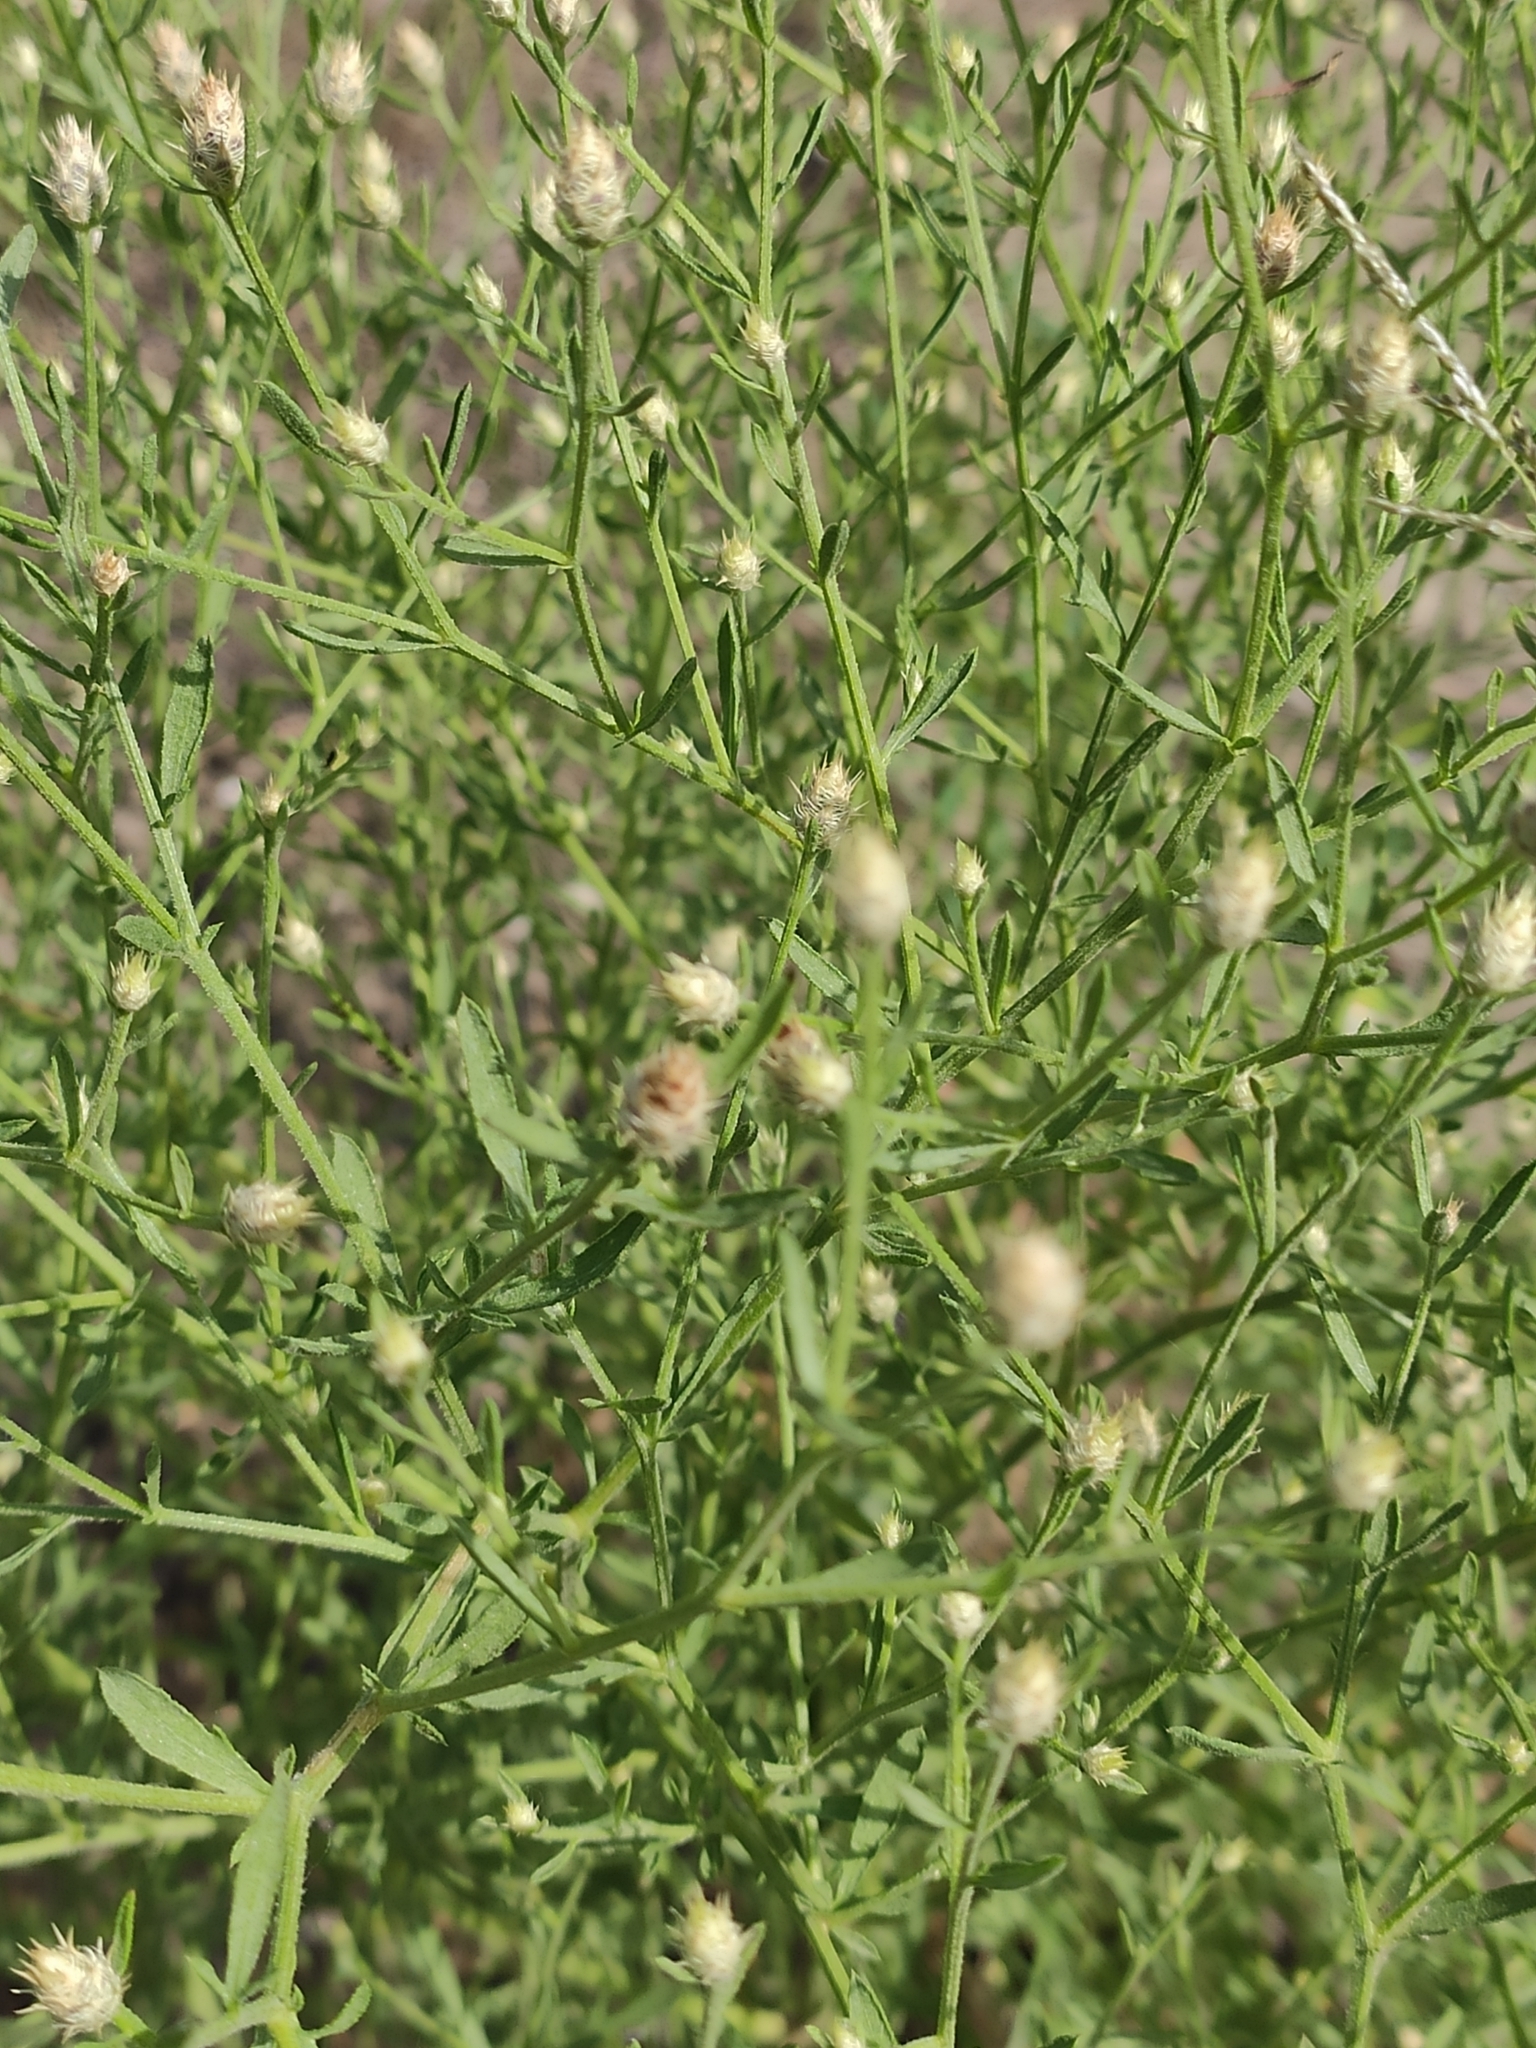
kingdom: Plantae
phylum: Tracheophyta
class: Magnoliopsida
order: Asterales
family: Asteraceae
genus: Centaurea
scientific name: Centaurea diffusa
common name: Diffuse knapweed
